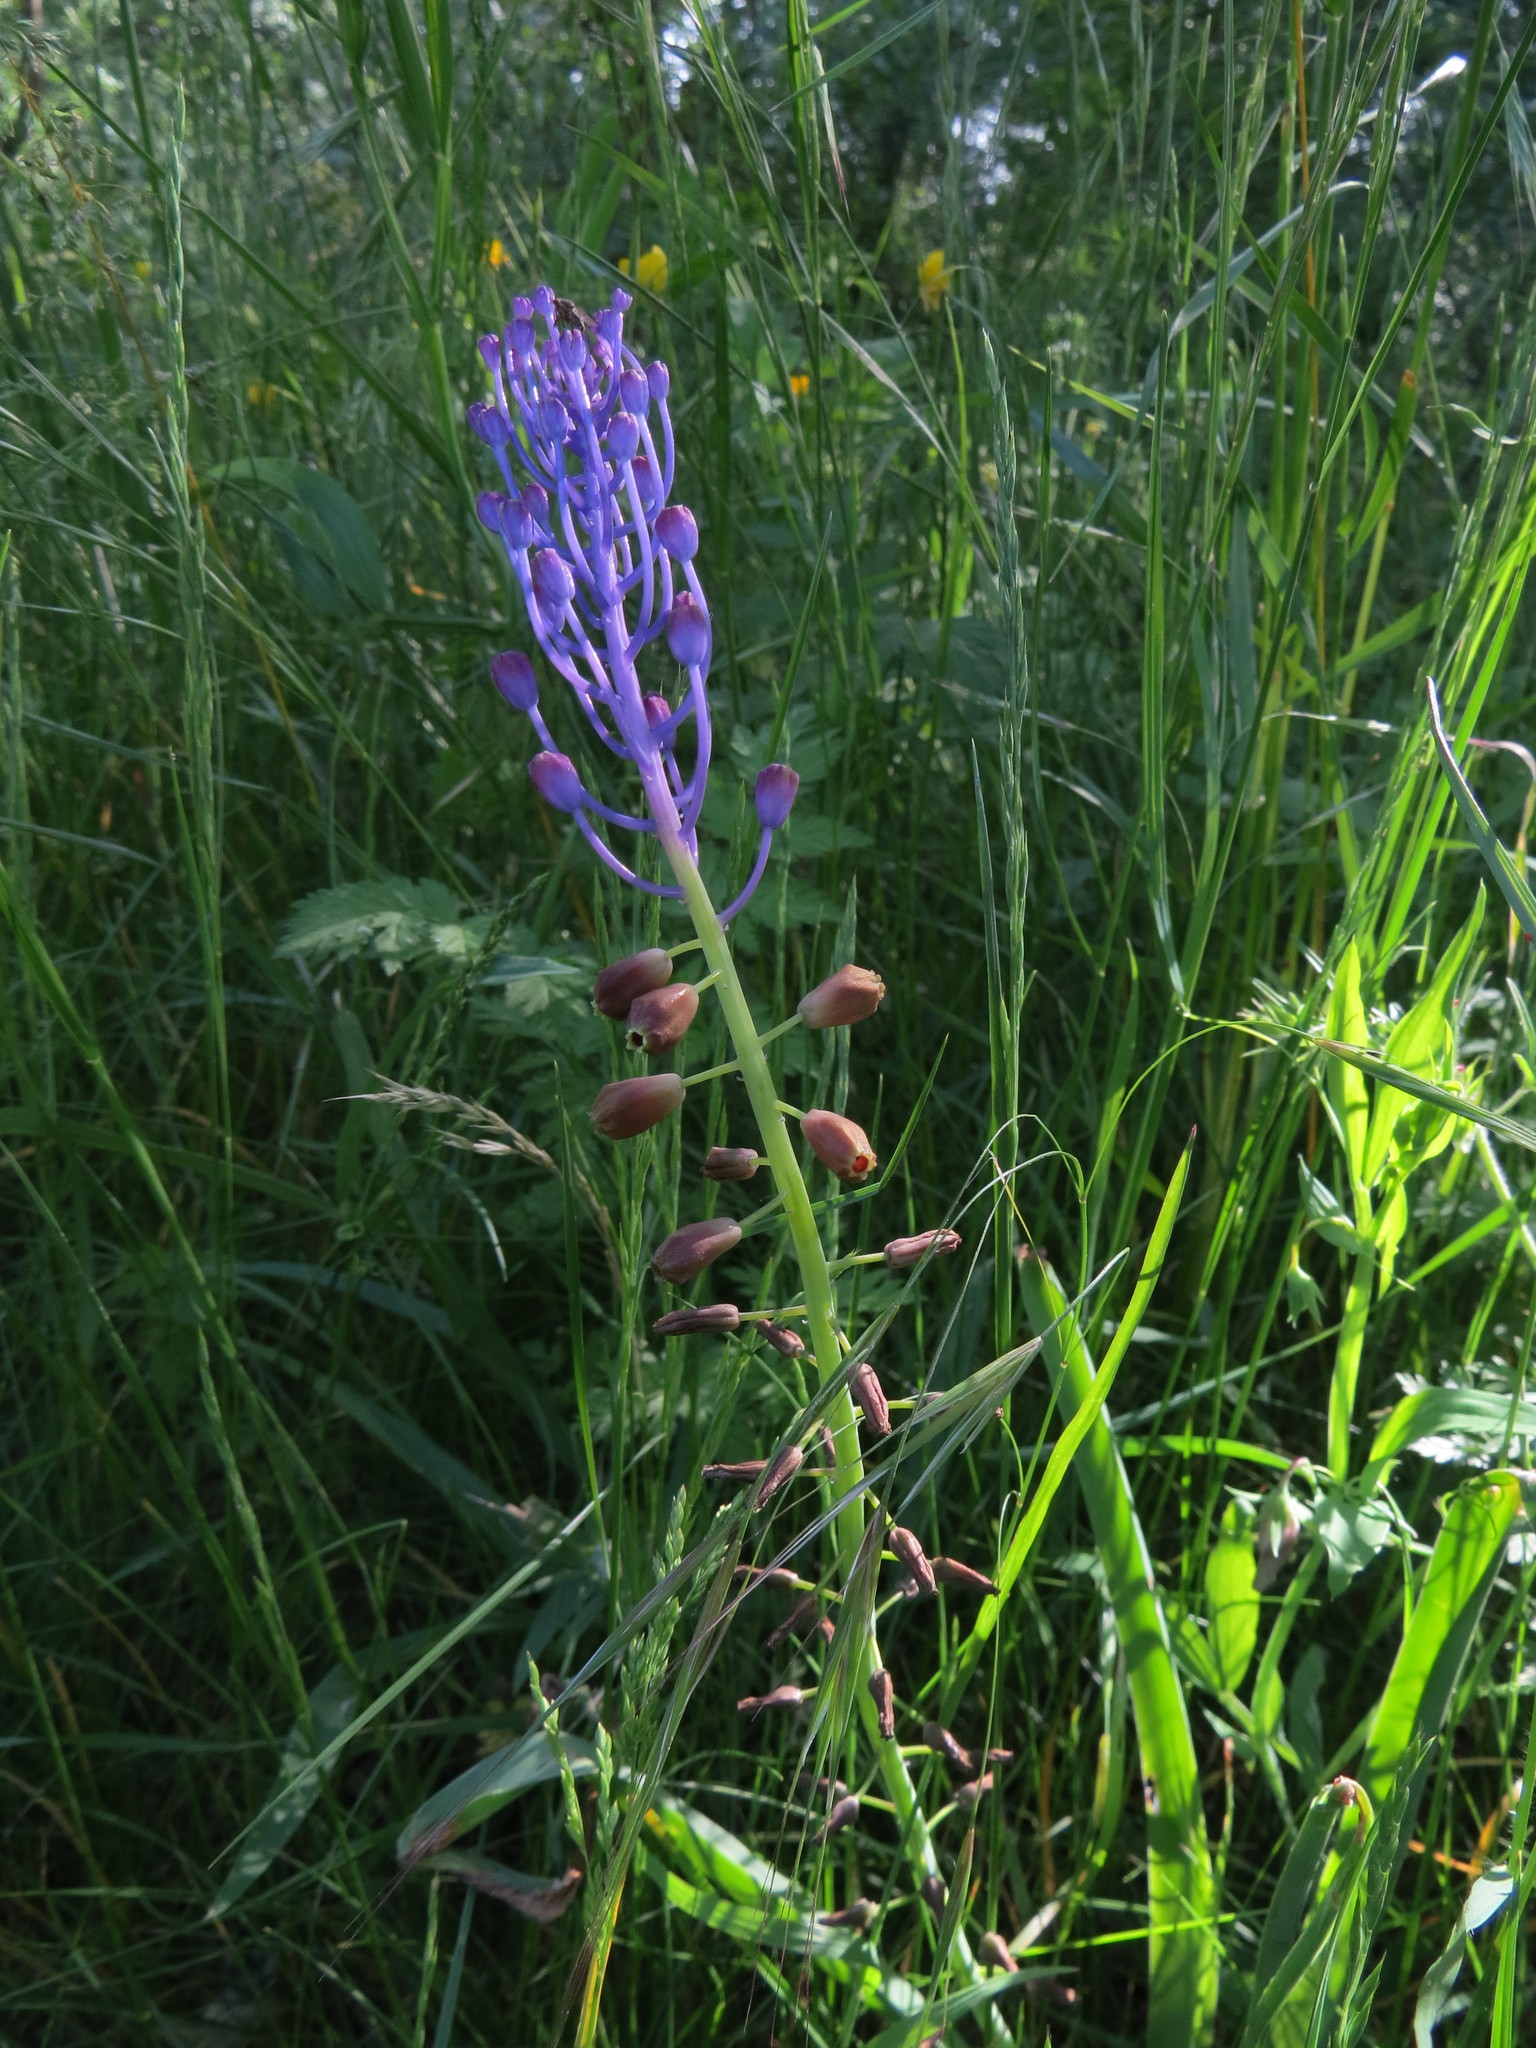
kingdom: Plantae
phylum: Tracheophyta
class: Liliopsida
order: Asparagales
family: Asparagaceae
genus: Muscari
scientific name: Muscari comosum
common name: Tassel hyacinth
